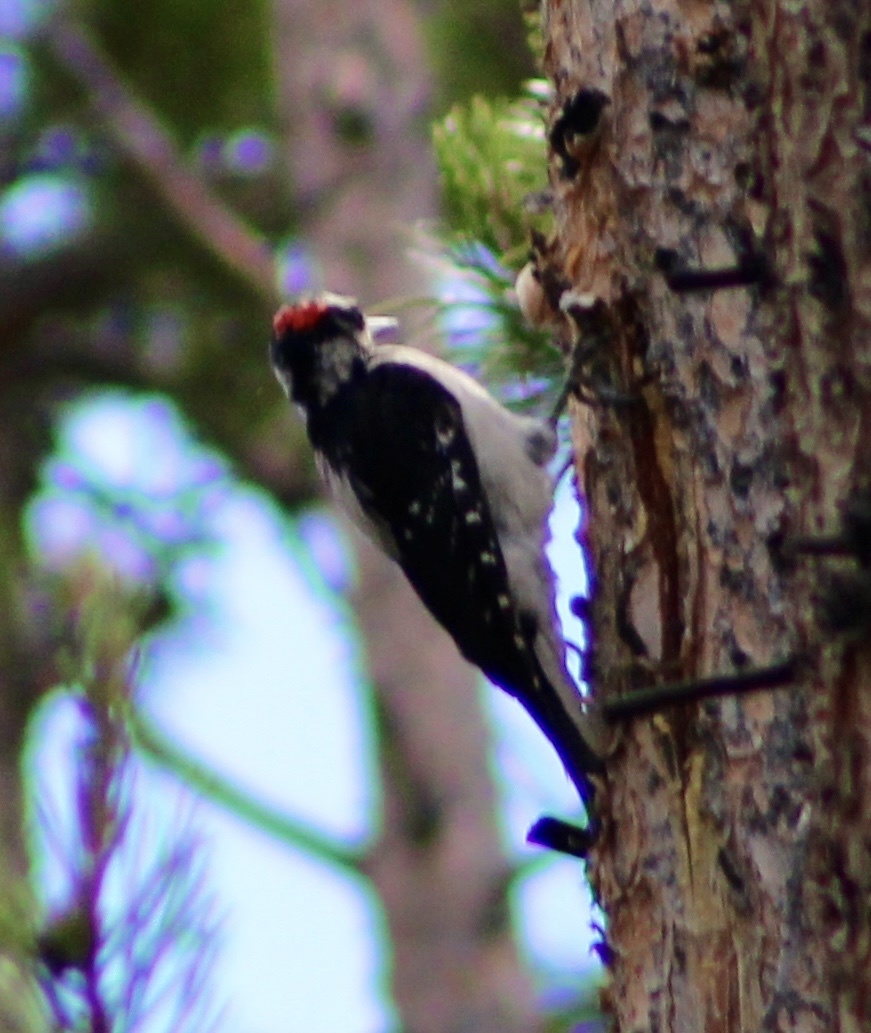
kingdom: Animalia
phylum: Chordata
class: Aves
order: Piciformes
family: Picidae
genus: Leuconotopicus
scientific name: Leuconotopicus villosus
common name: Hairy woodpecker
